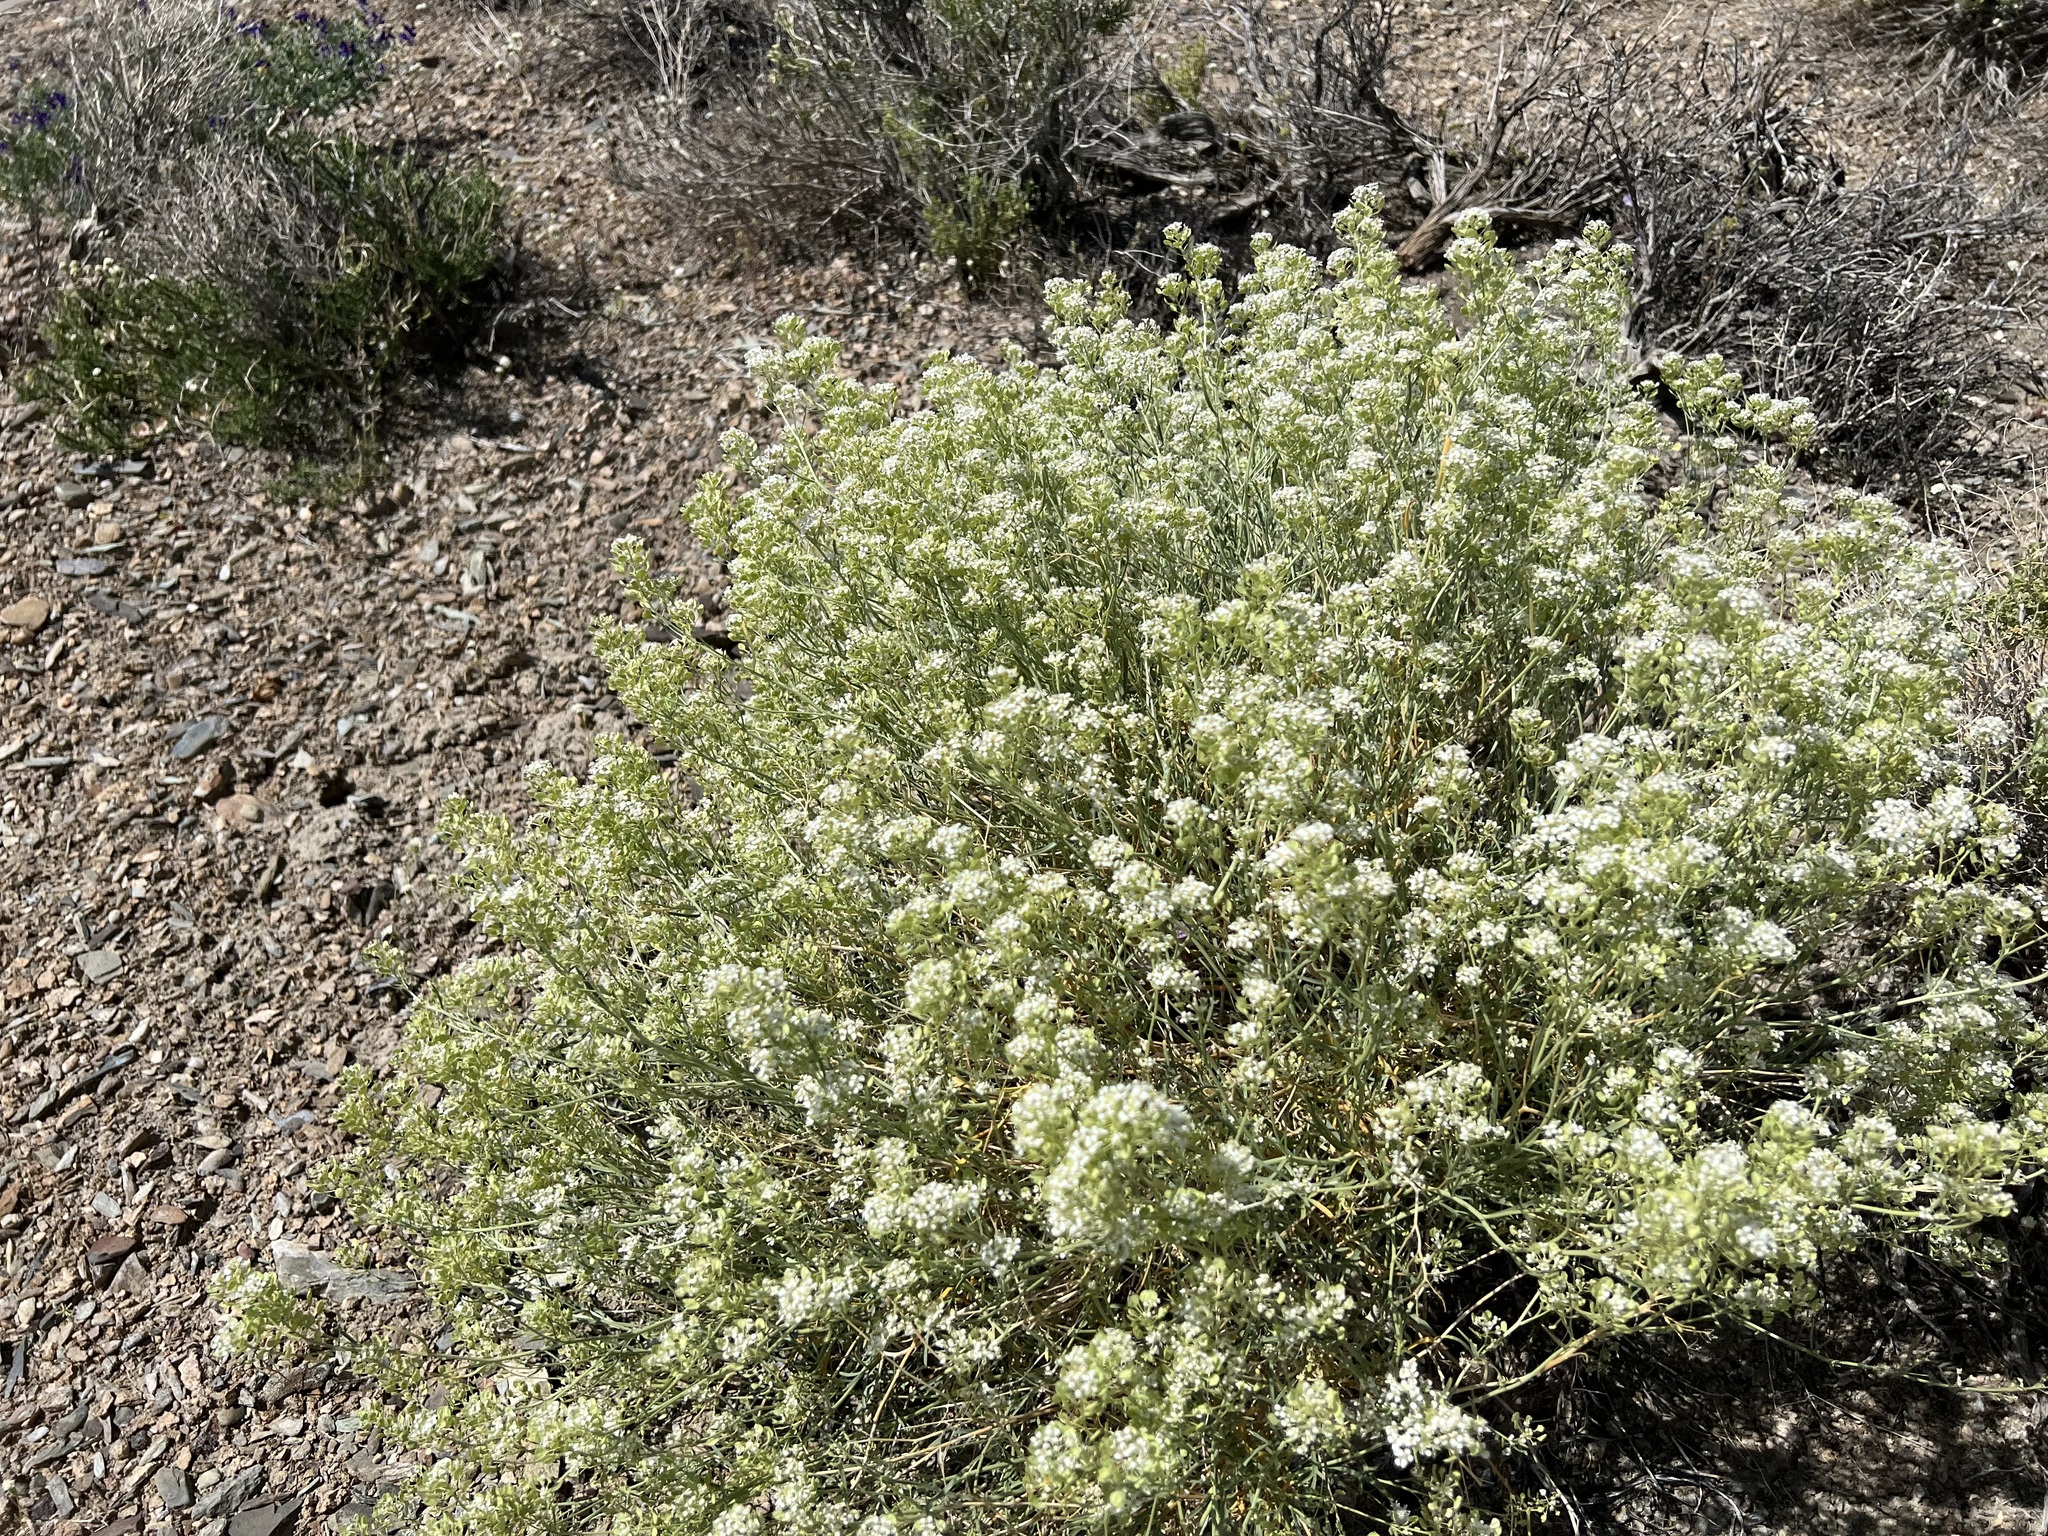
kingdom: Plantae
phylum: Tracheophyta
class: Magnoliopsida
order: Brassicales
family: Brassicaceae
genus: Lepidium
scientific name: Lepidium fremontii
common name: Fremont's pepperwort
